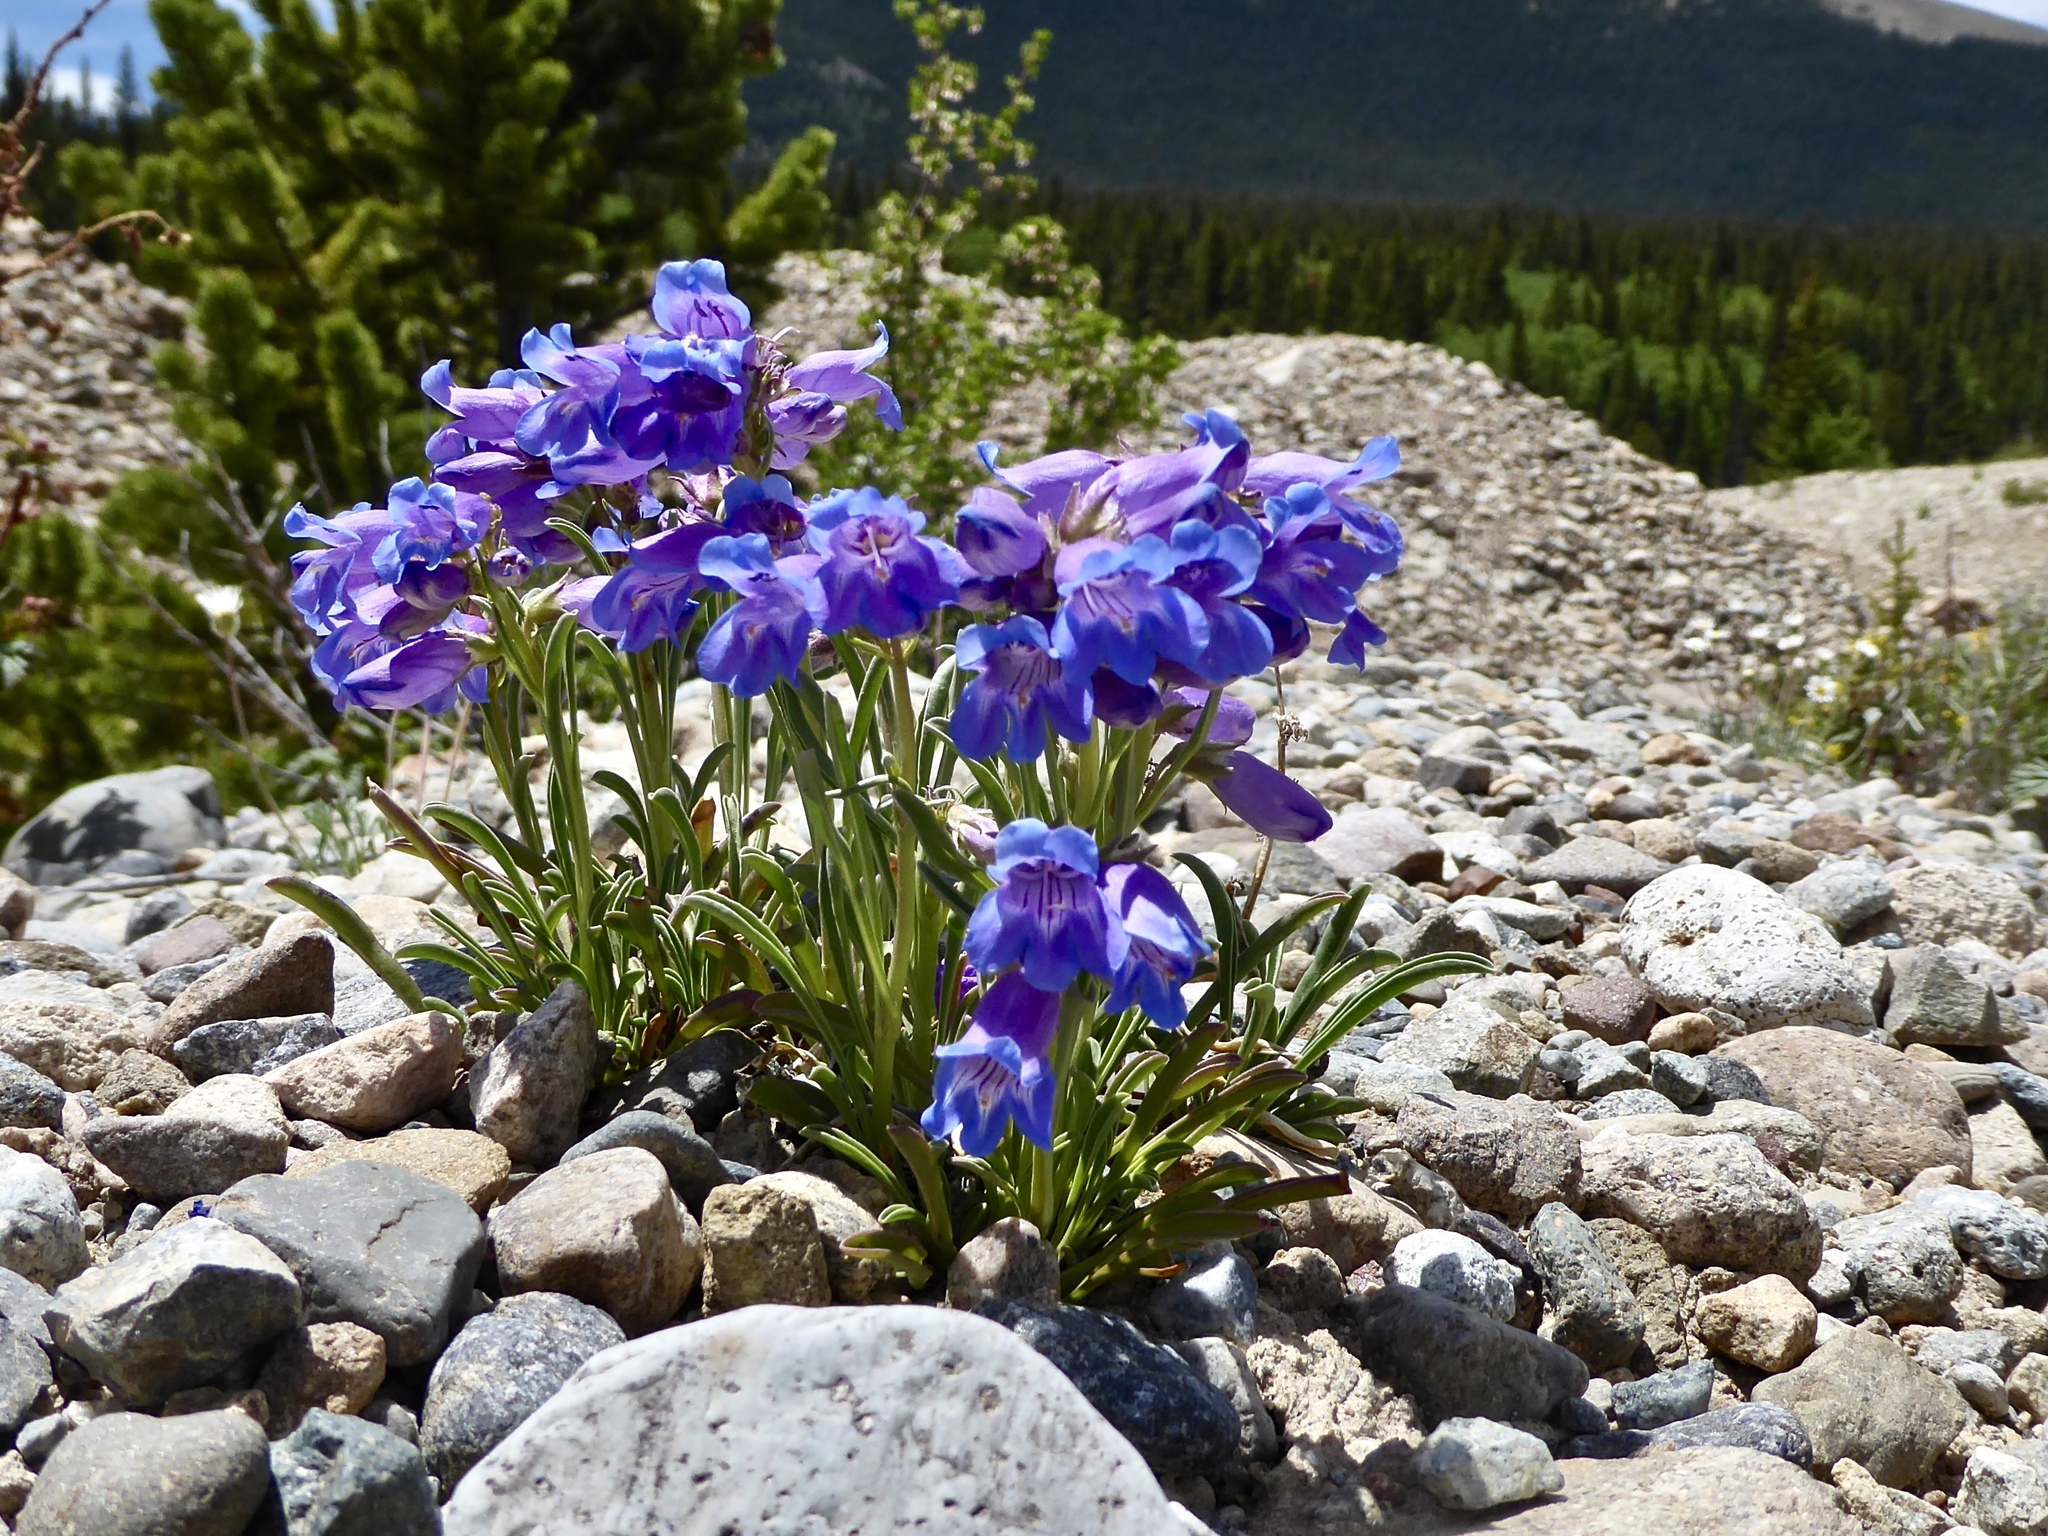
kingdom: Plantae
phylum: Tracheophyta
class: Magnoliopsida
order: Lamiales
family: Plantaginaceae
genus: Penstemon
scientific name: Penstemon hallii
